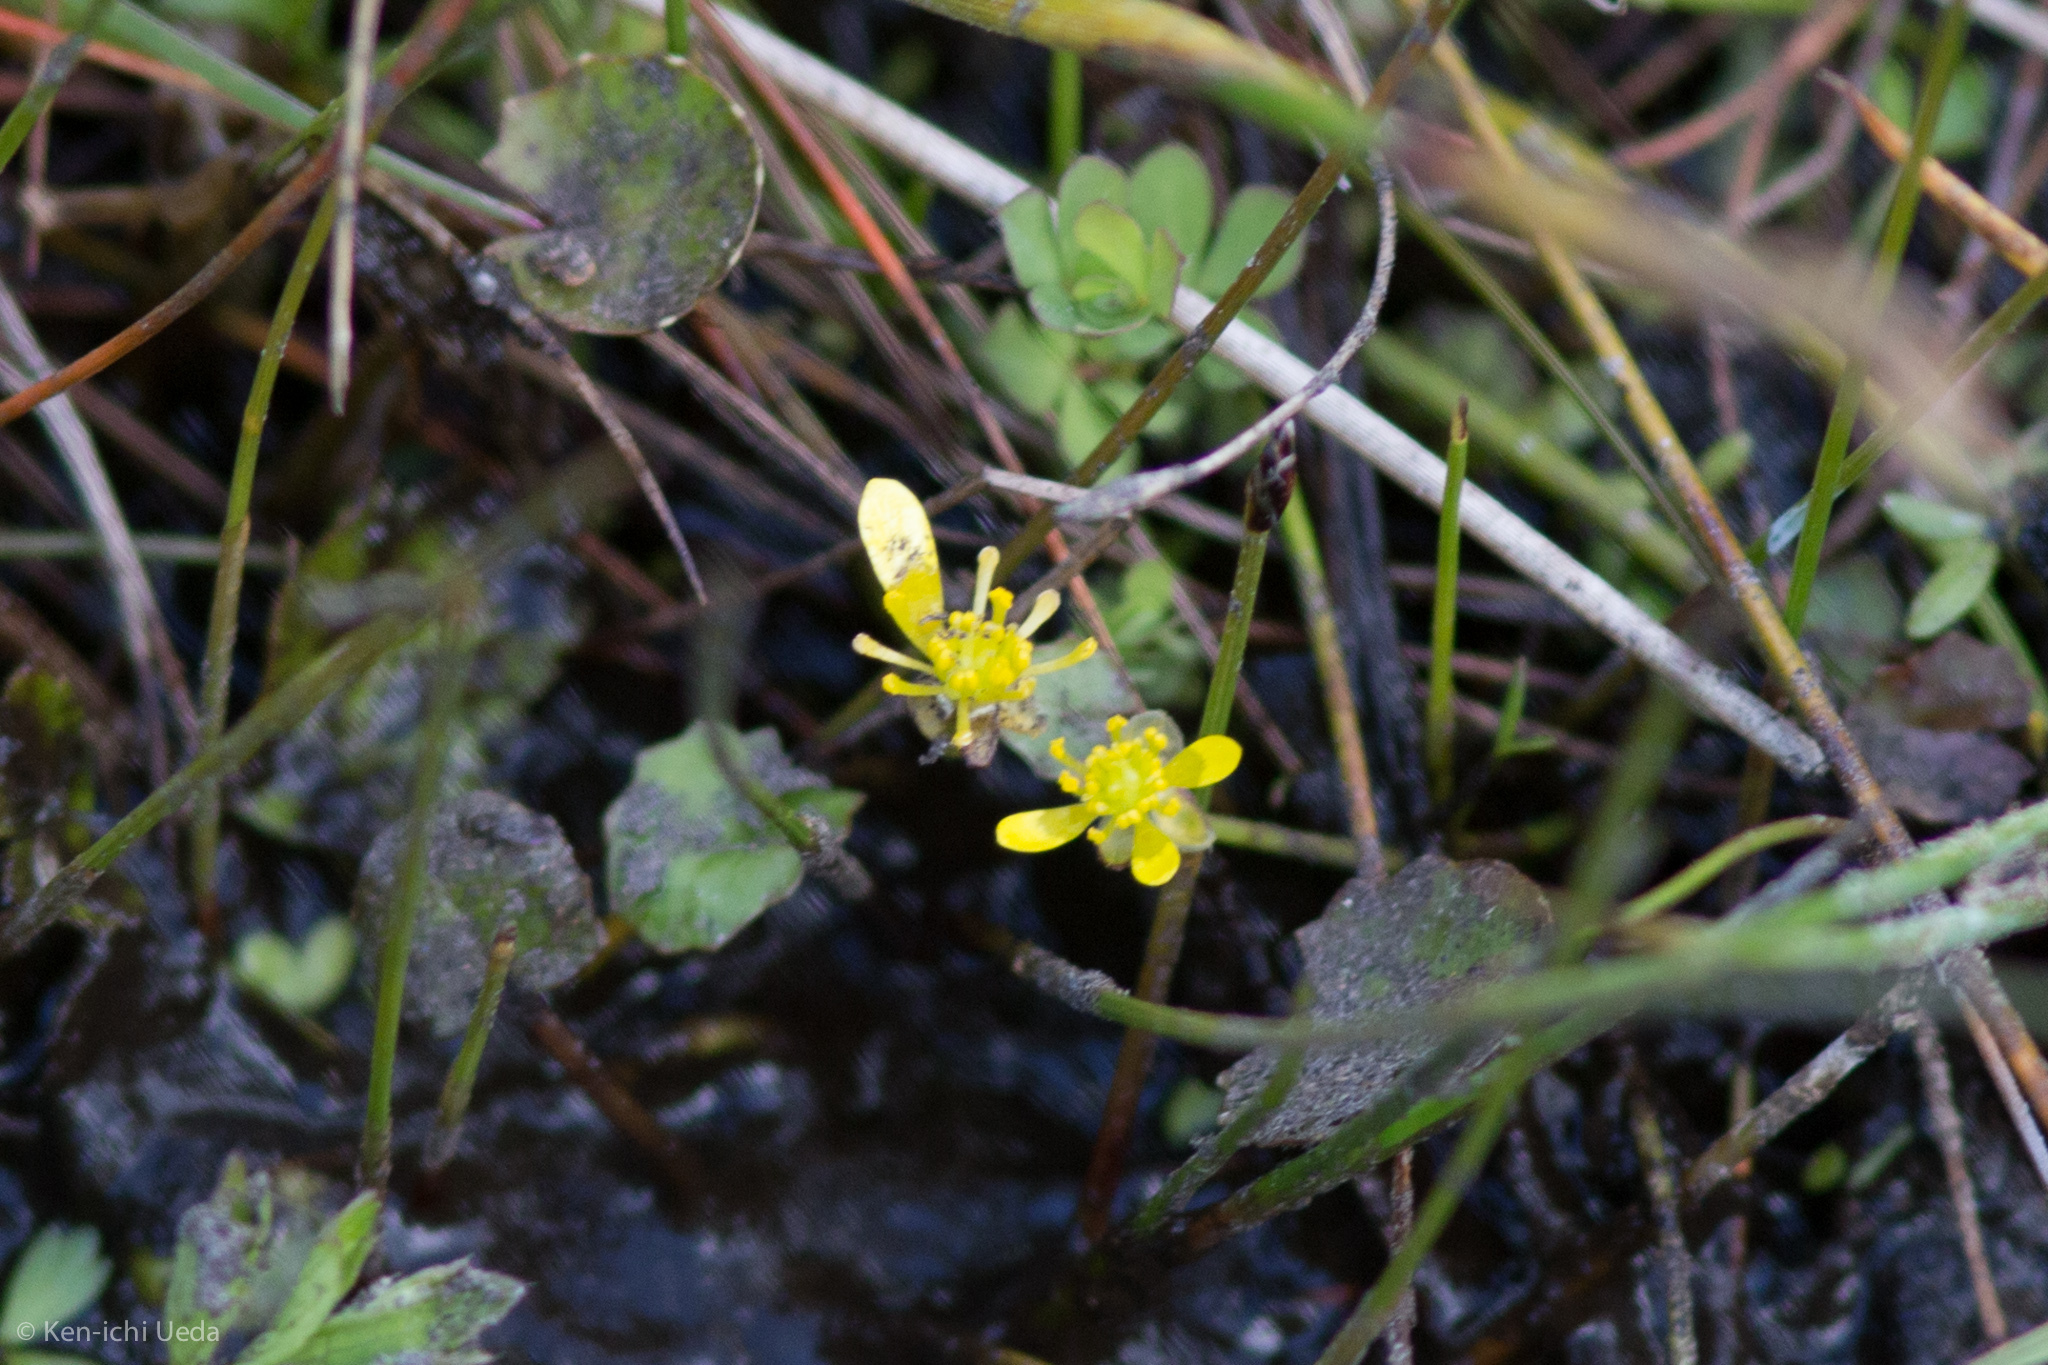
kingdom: Plantae
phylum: Tracheophyta
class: Magnoliopsida
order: Ranunculales
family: Ranunculaceae
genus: Ranunculus
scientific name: Ranunculus glabrifolius
